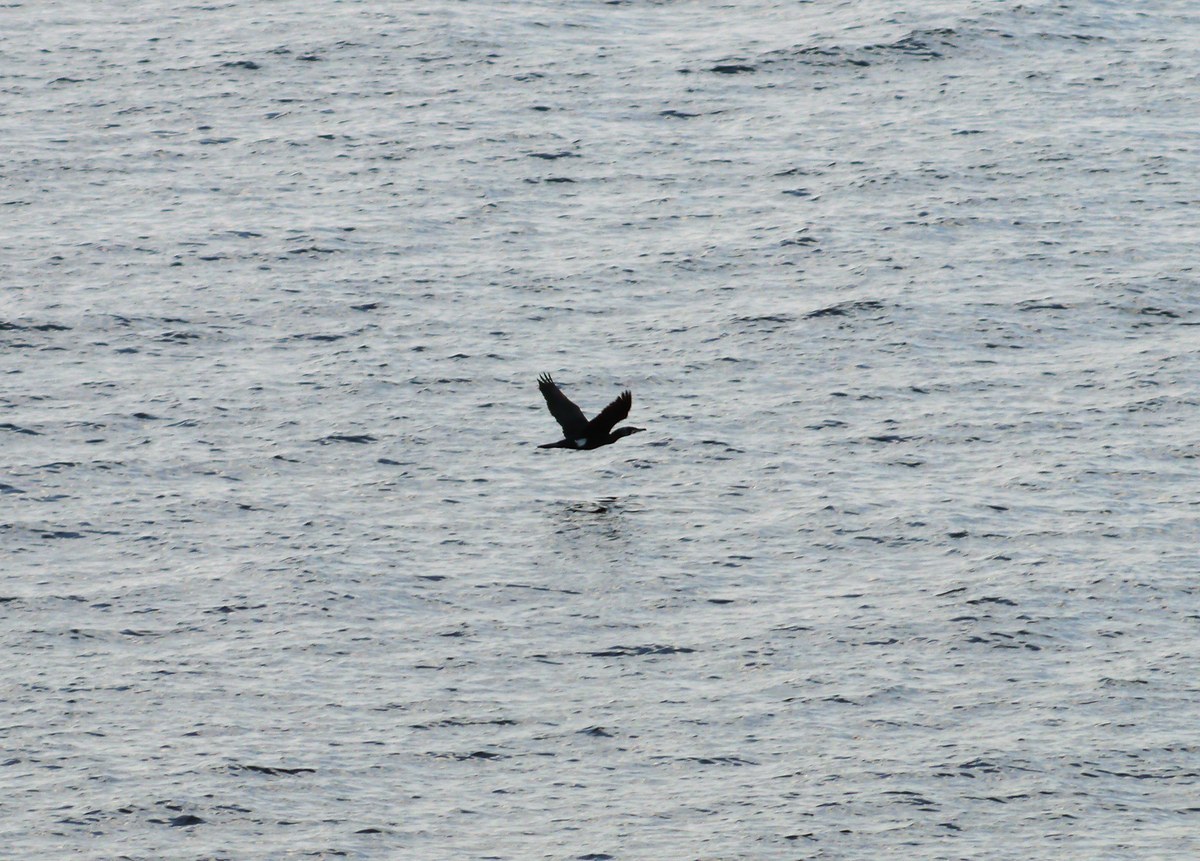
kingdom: Animalia
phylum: Chordata
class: Aves
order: Suliformes
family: Phalacrocoracidae
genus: Phalacrocorax
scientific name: Phalacrocorax carbo
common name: Great cormorant
